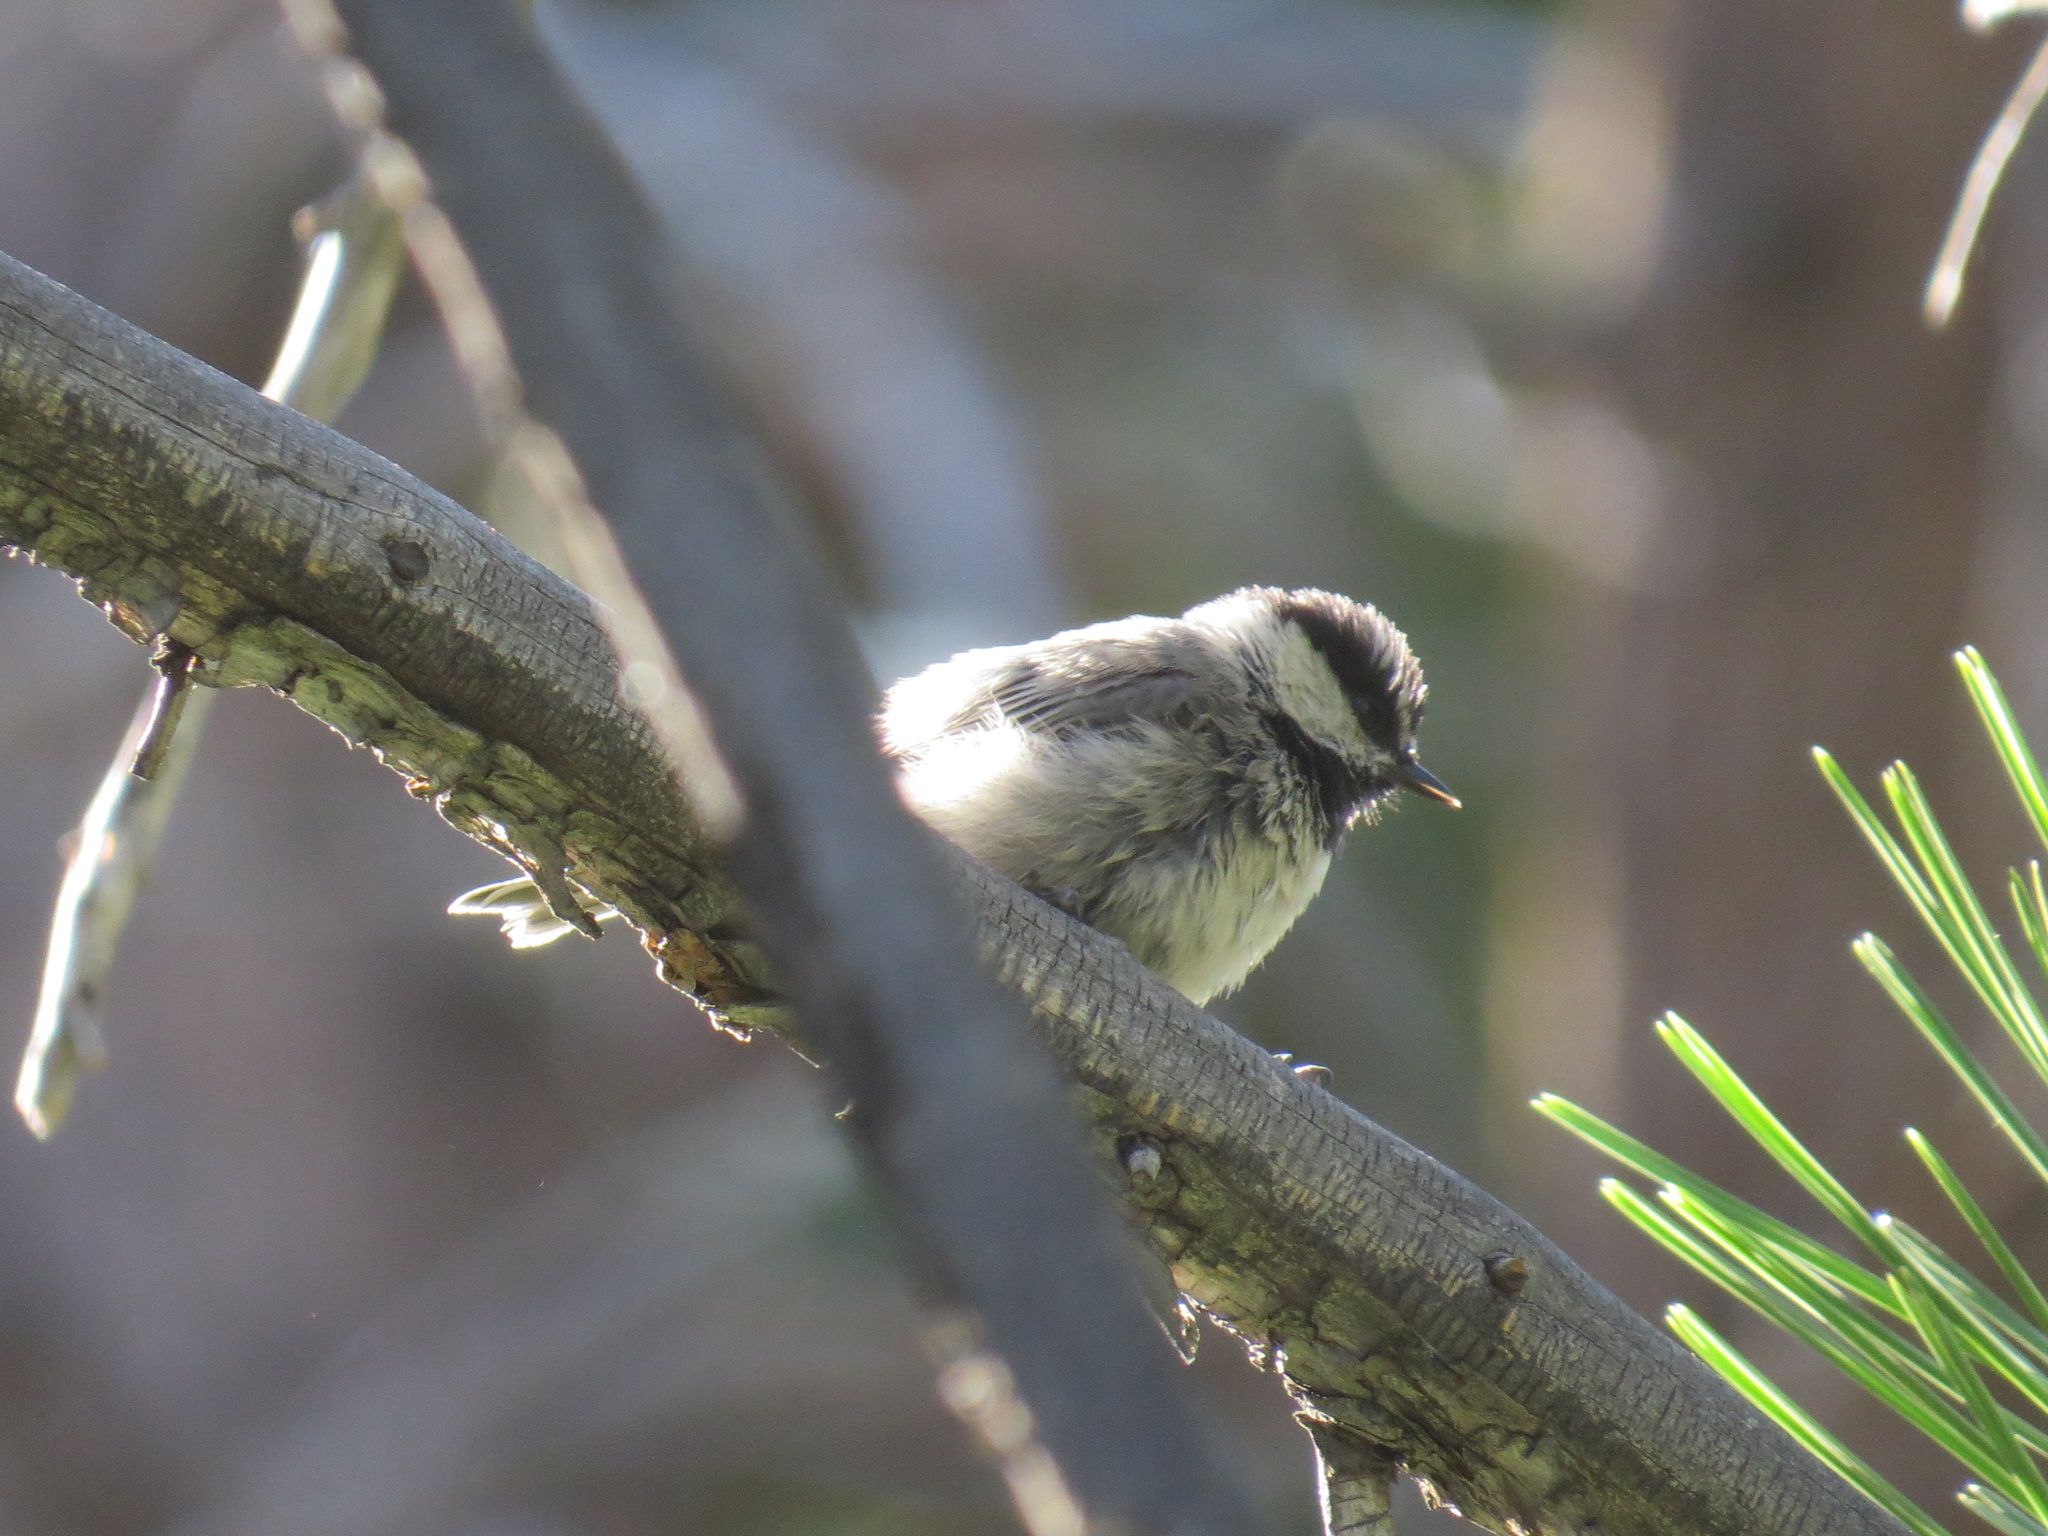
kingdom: Animalia
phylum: Chordata
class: Aves
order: Passeriformes
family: Paridae
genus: Poecile
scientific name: Poecile gambeli
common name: Mountain chickadee
